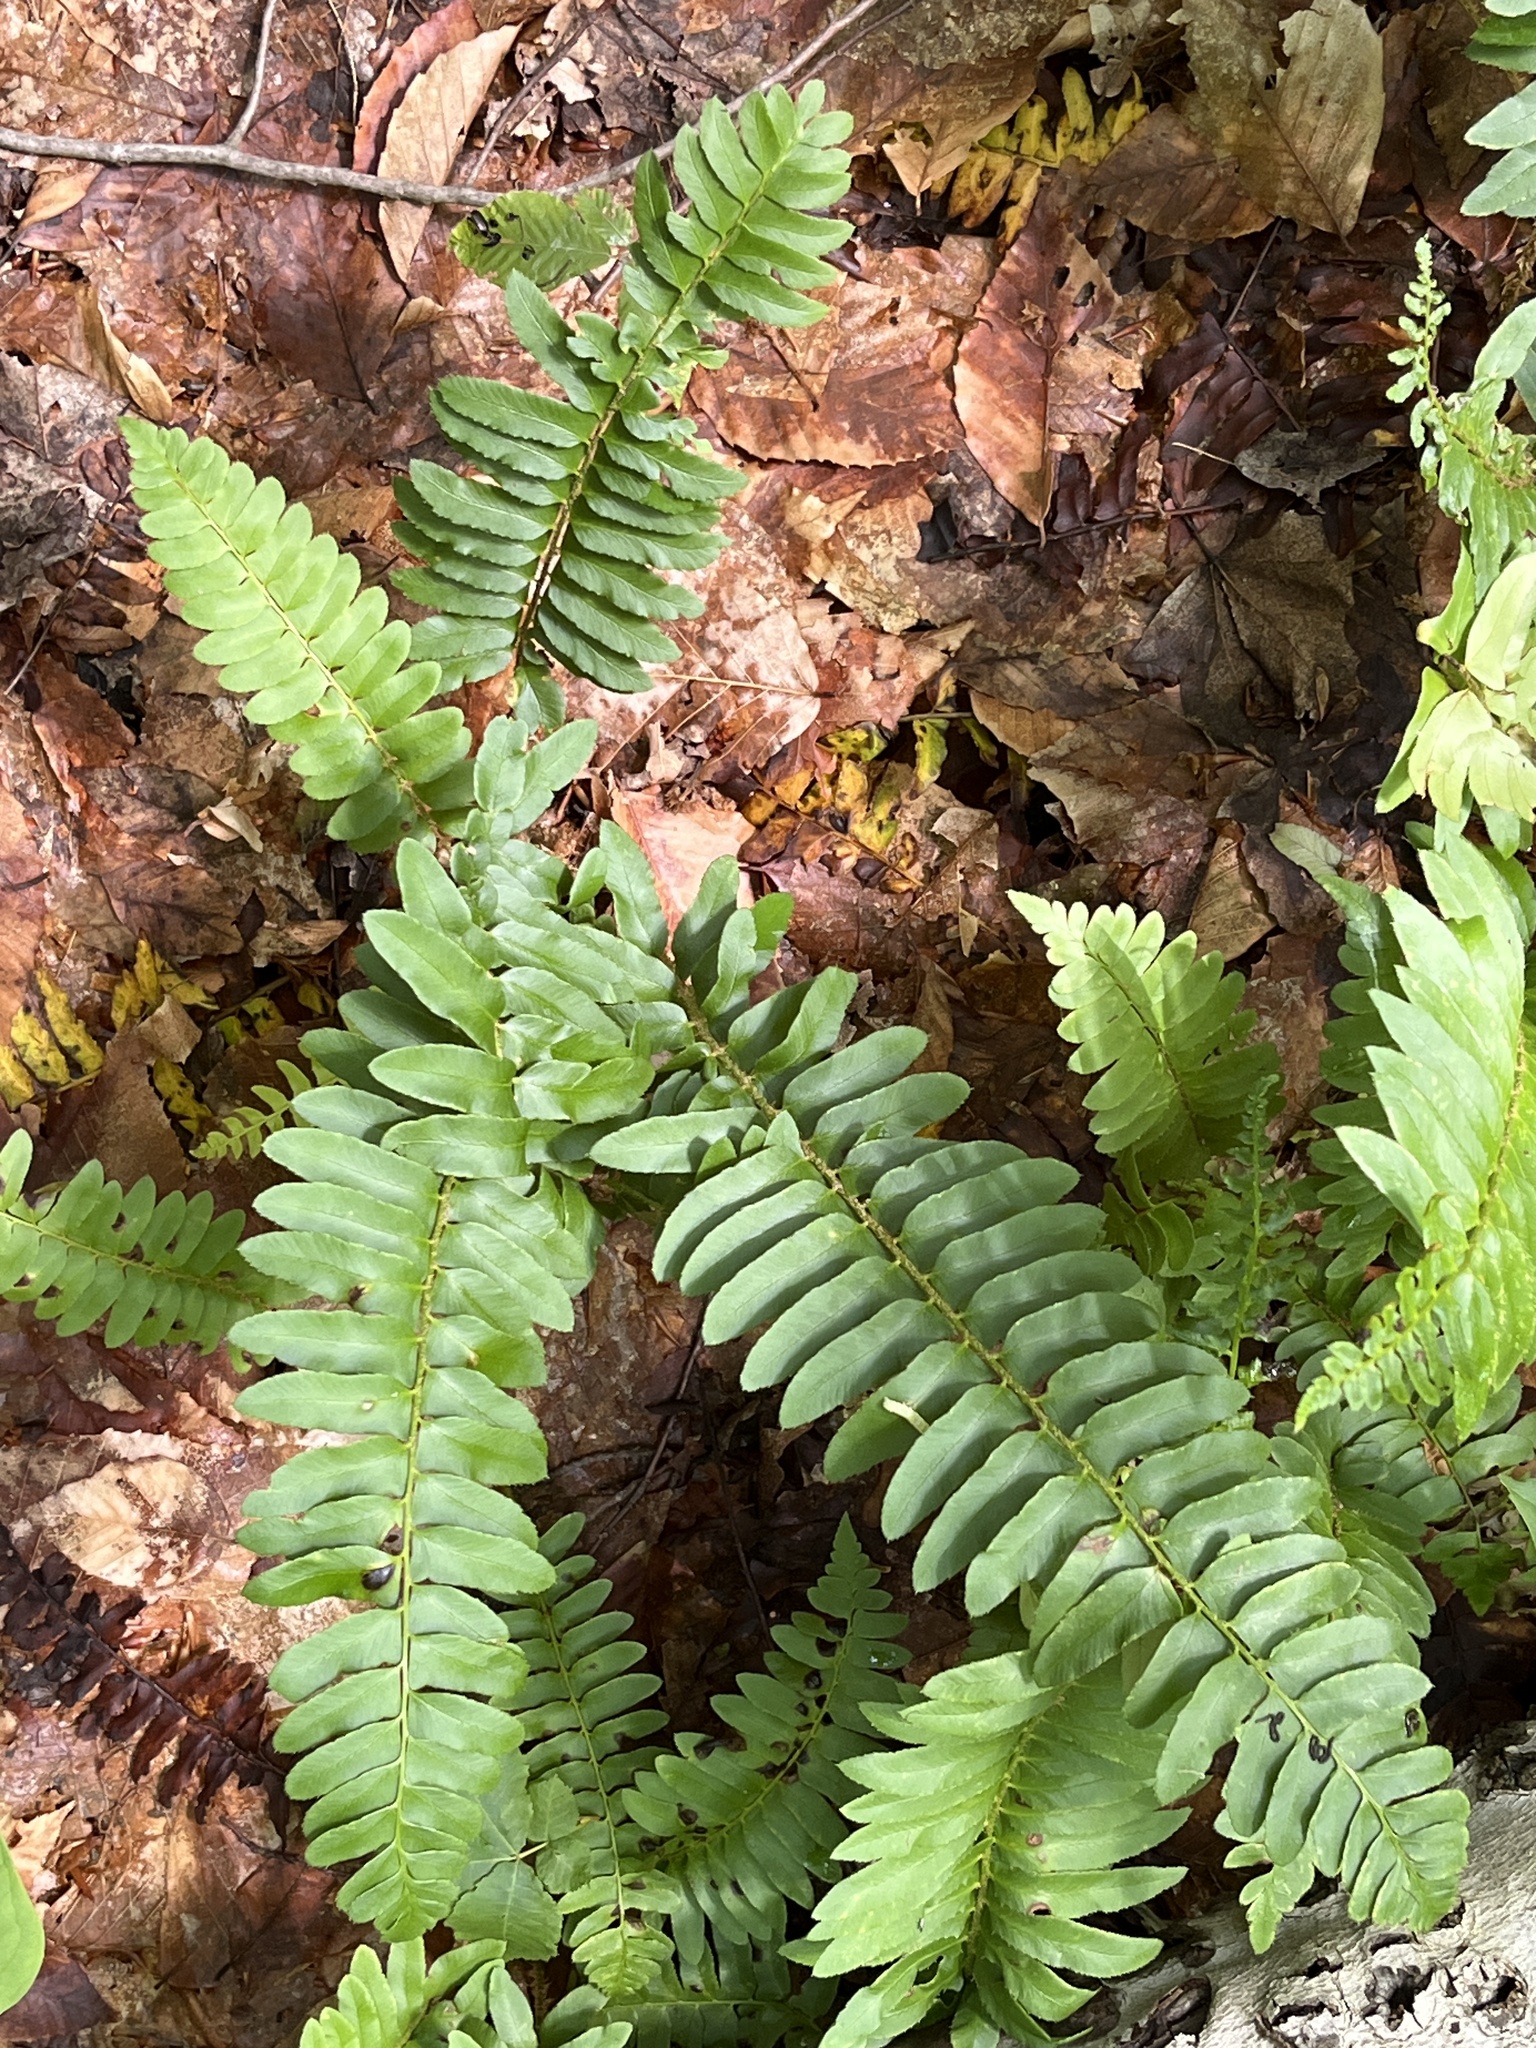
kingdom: Plantae
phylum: Tracheophyta
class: Polypodiopsida
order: Polypodiales
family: Dryopteridaceae
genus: Polystichum
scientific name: Polystichum acrostichoides
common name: Christmas fern
